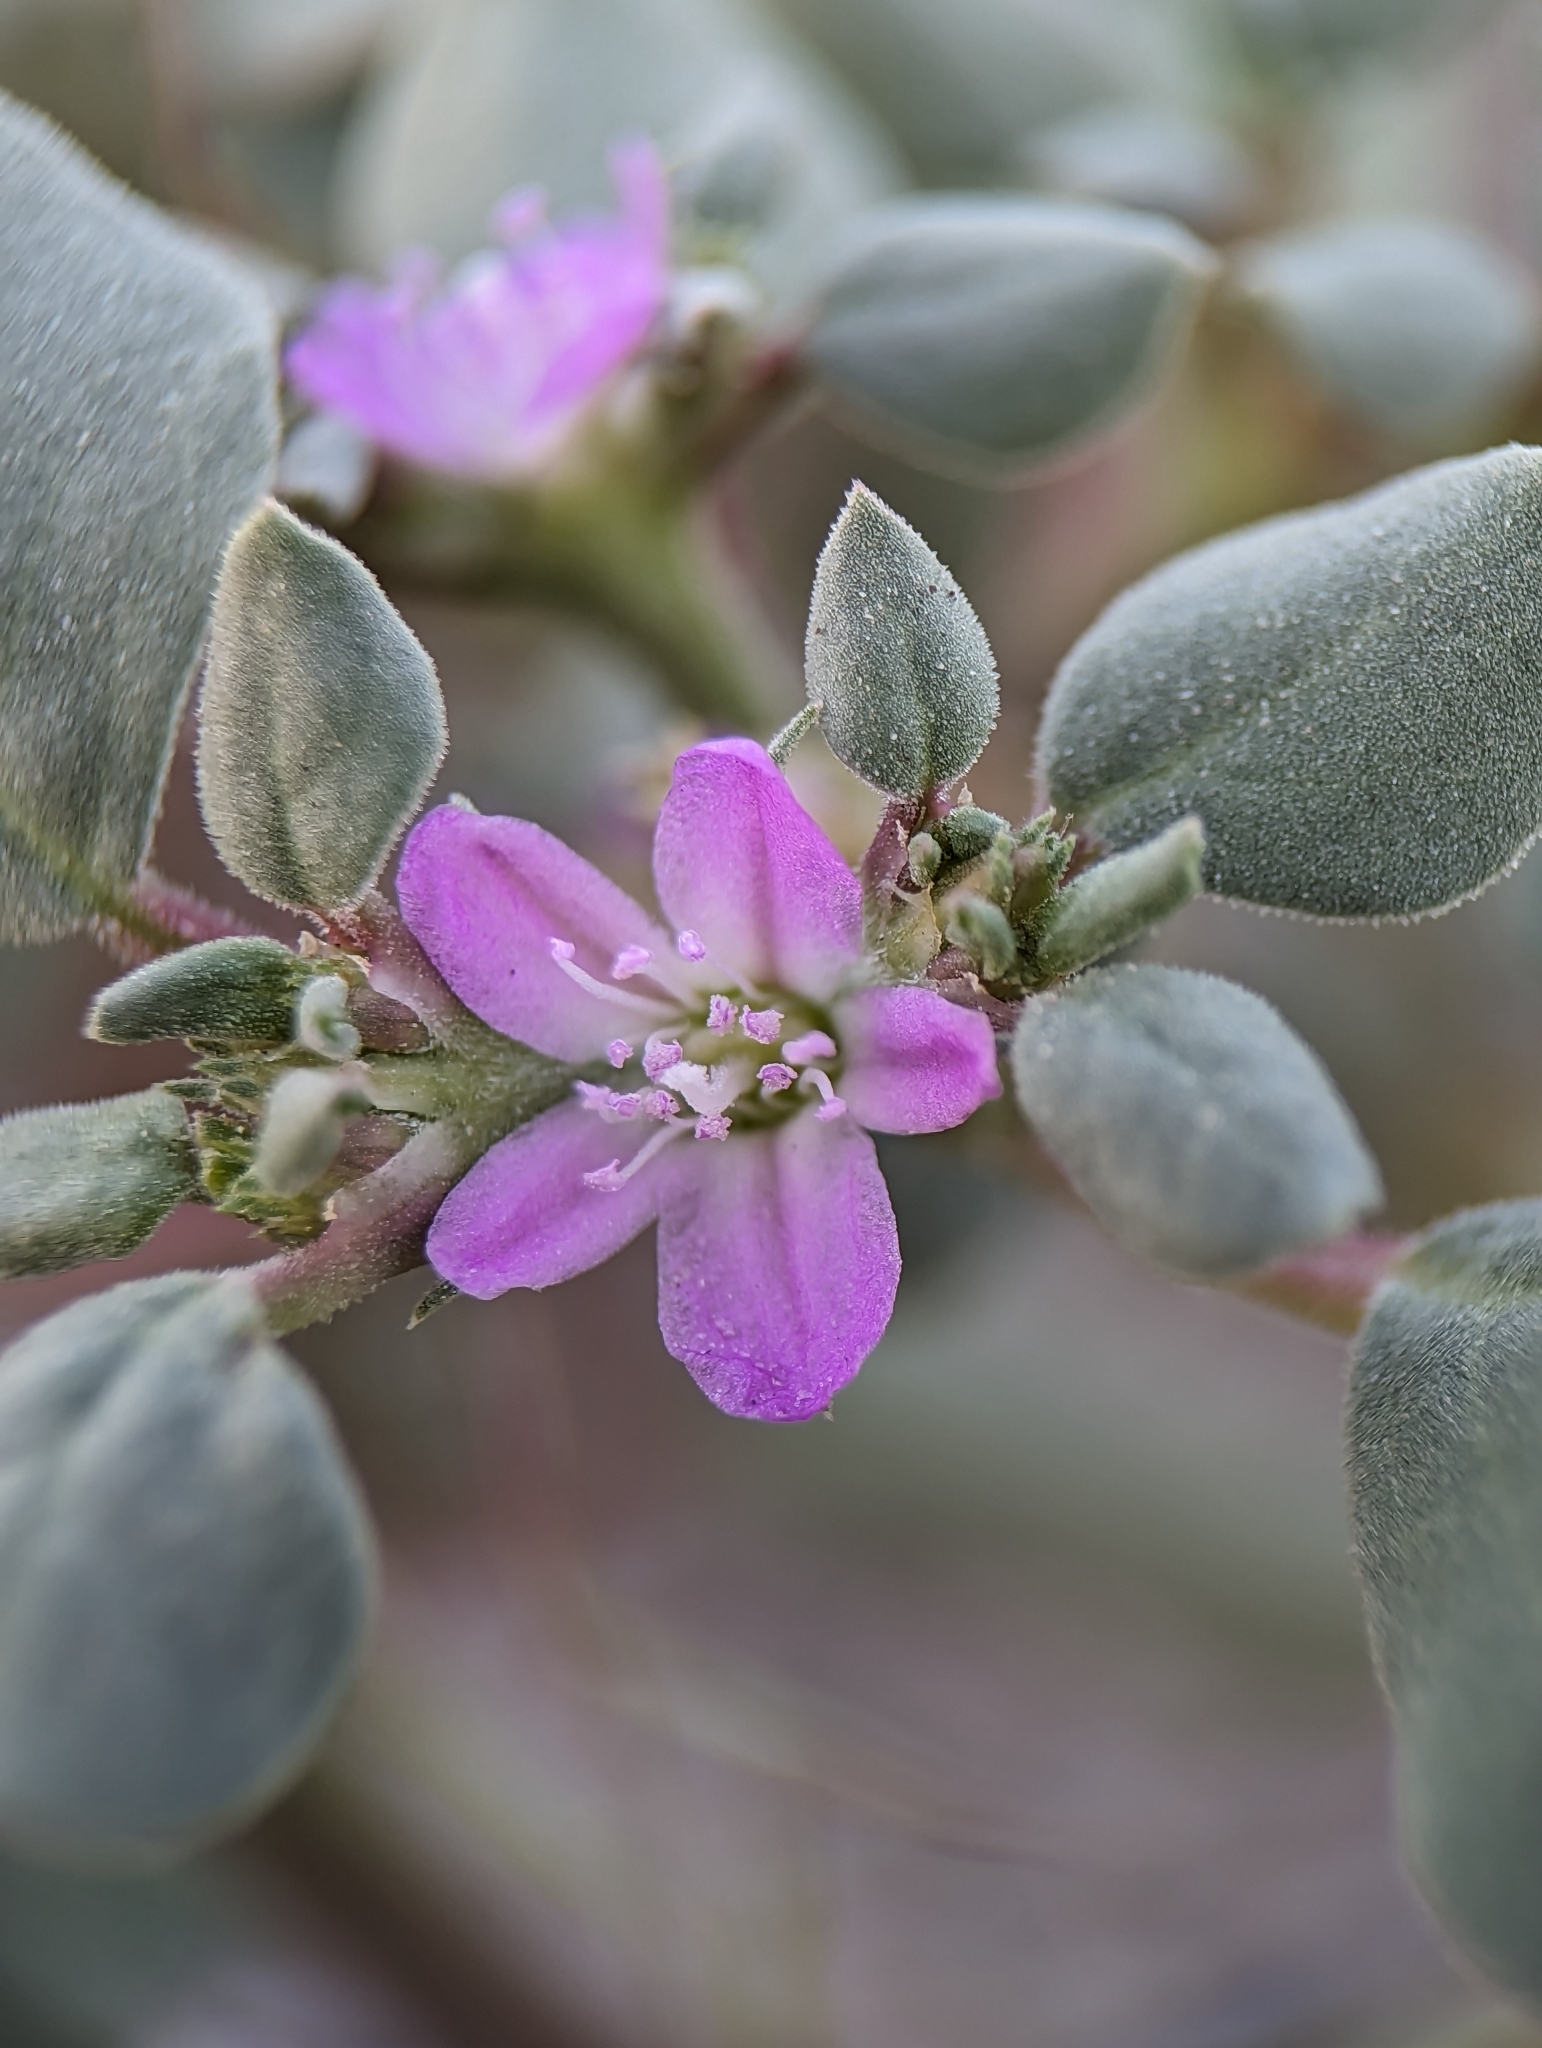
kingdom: Plantae
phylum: Tracheophyta
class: Magnoliopsida
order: Caryophyllales
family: Aizoaceae
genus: Trianthema
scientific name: Trianthema portulacastrum
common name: Desert horsepurslane
